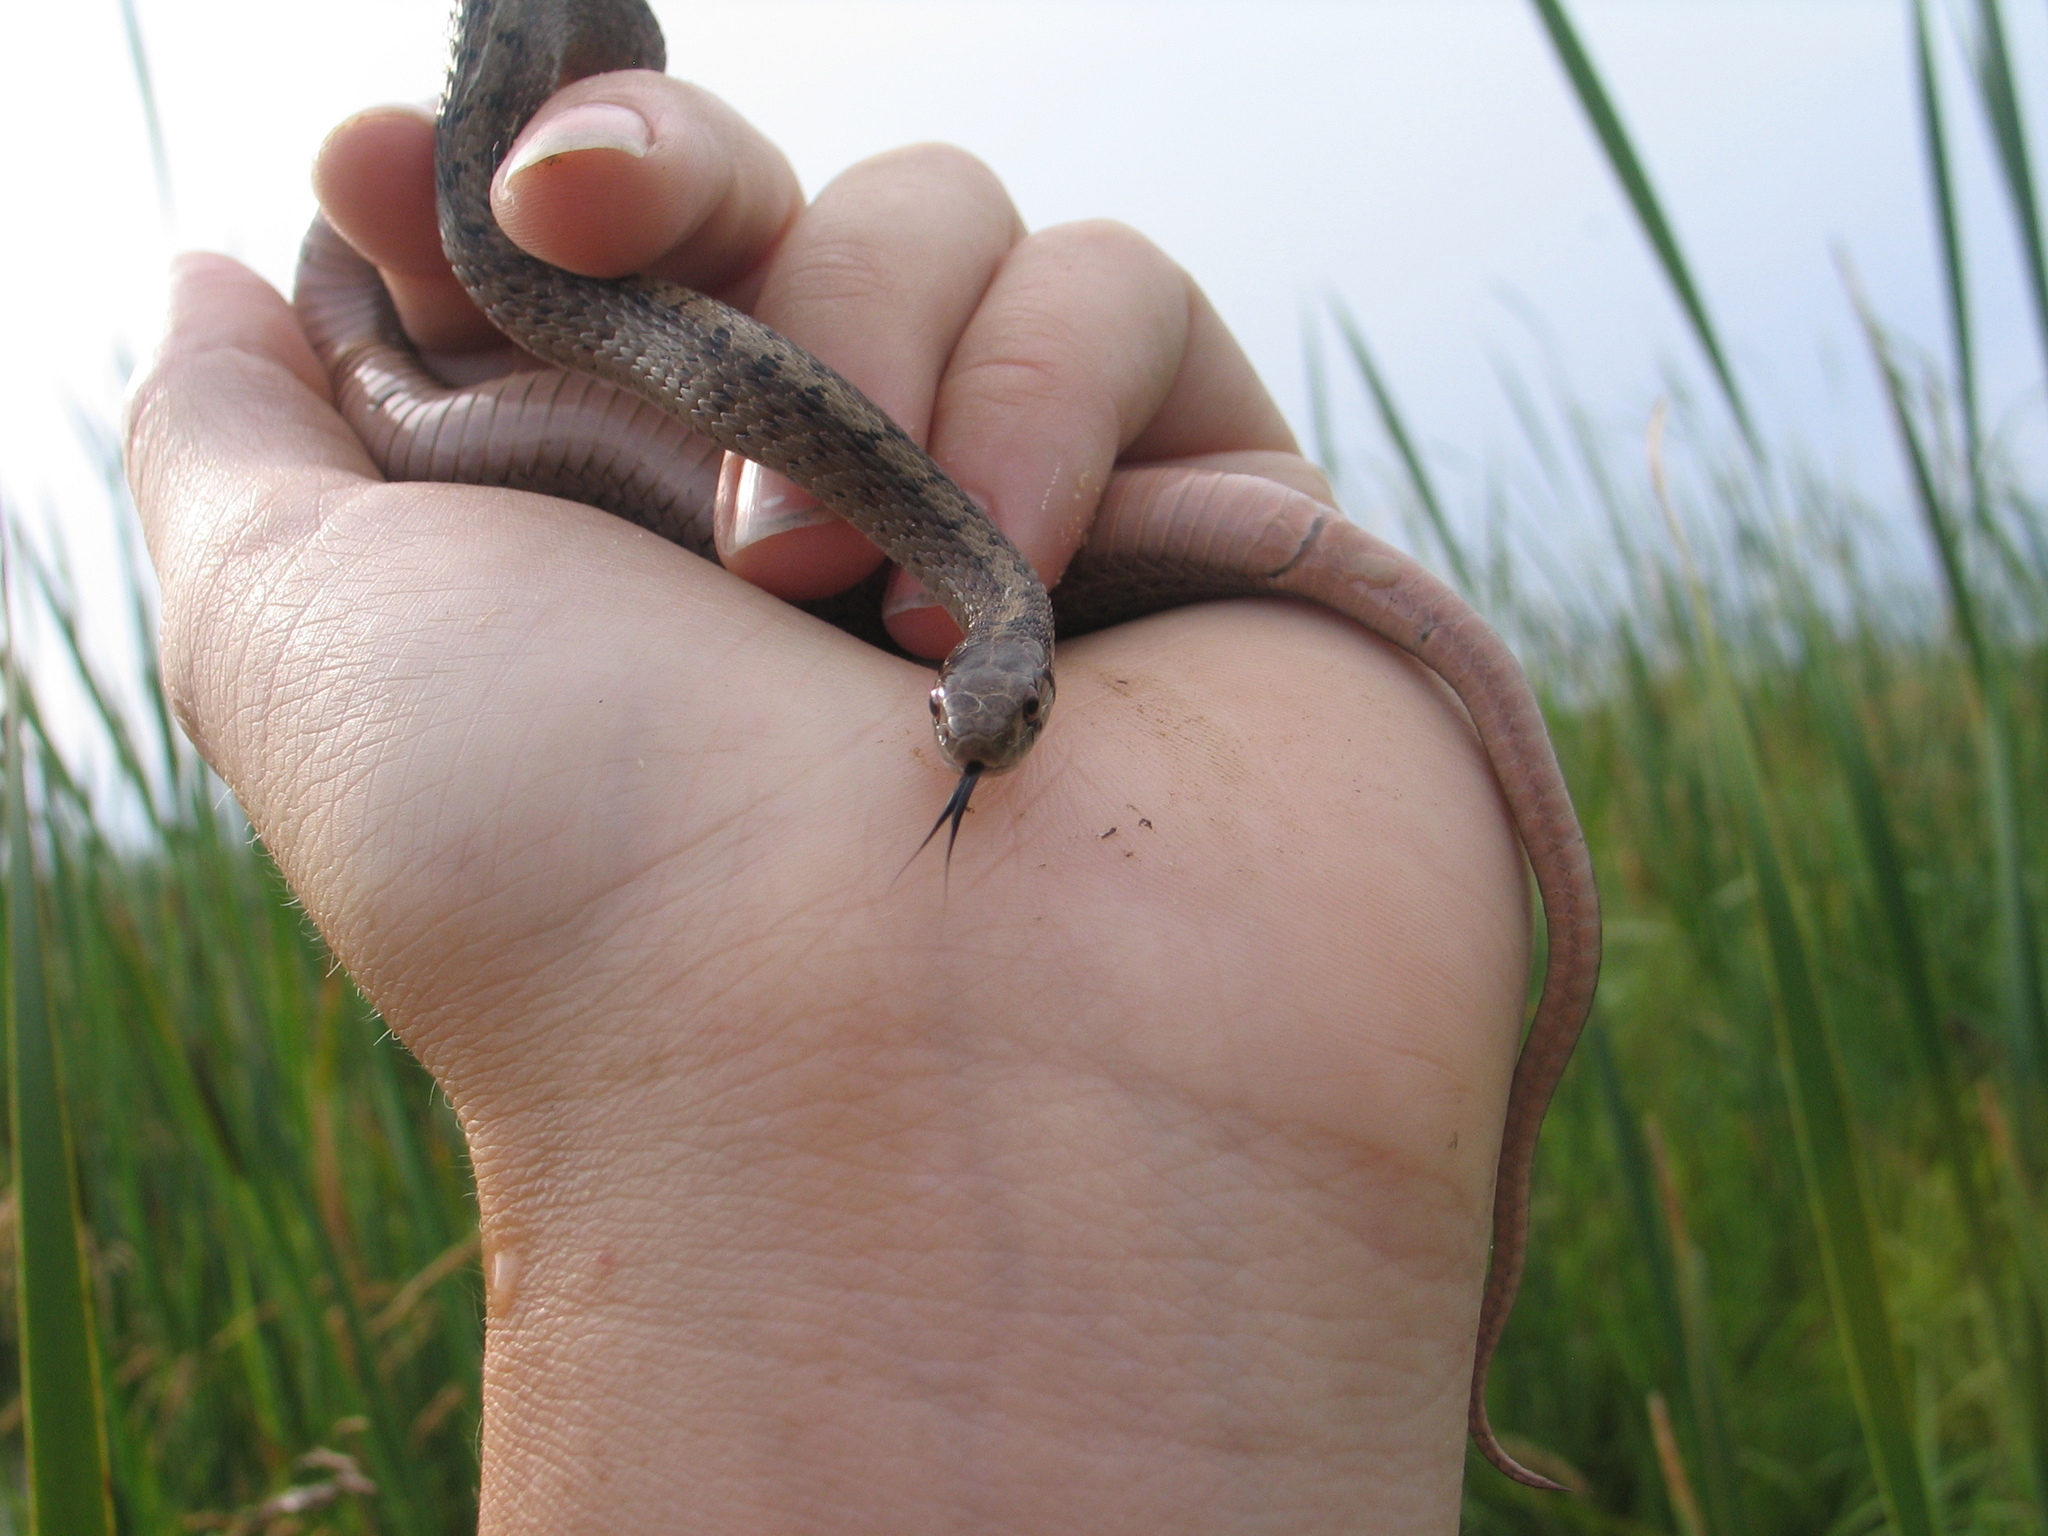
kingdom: Animalia
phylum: Chordata
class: Squamata
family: Colubridae
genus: Storeria
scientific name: Storeria dekayi
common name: (dekay’s) brown snake
